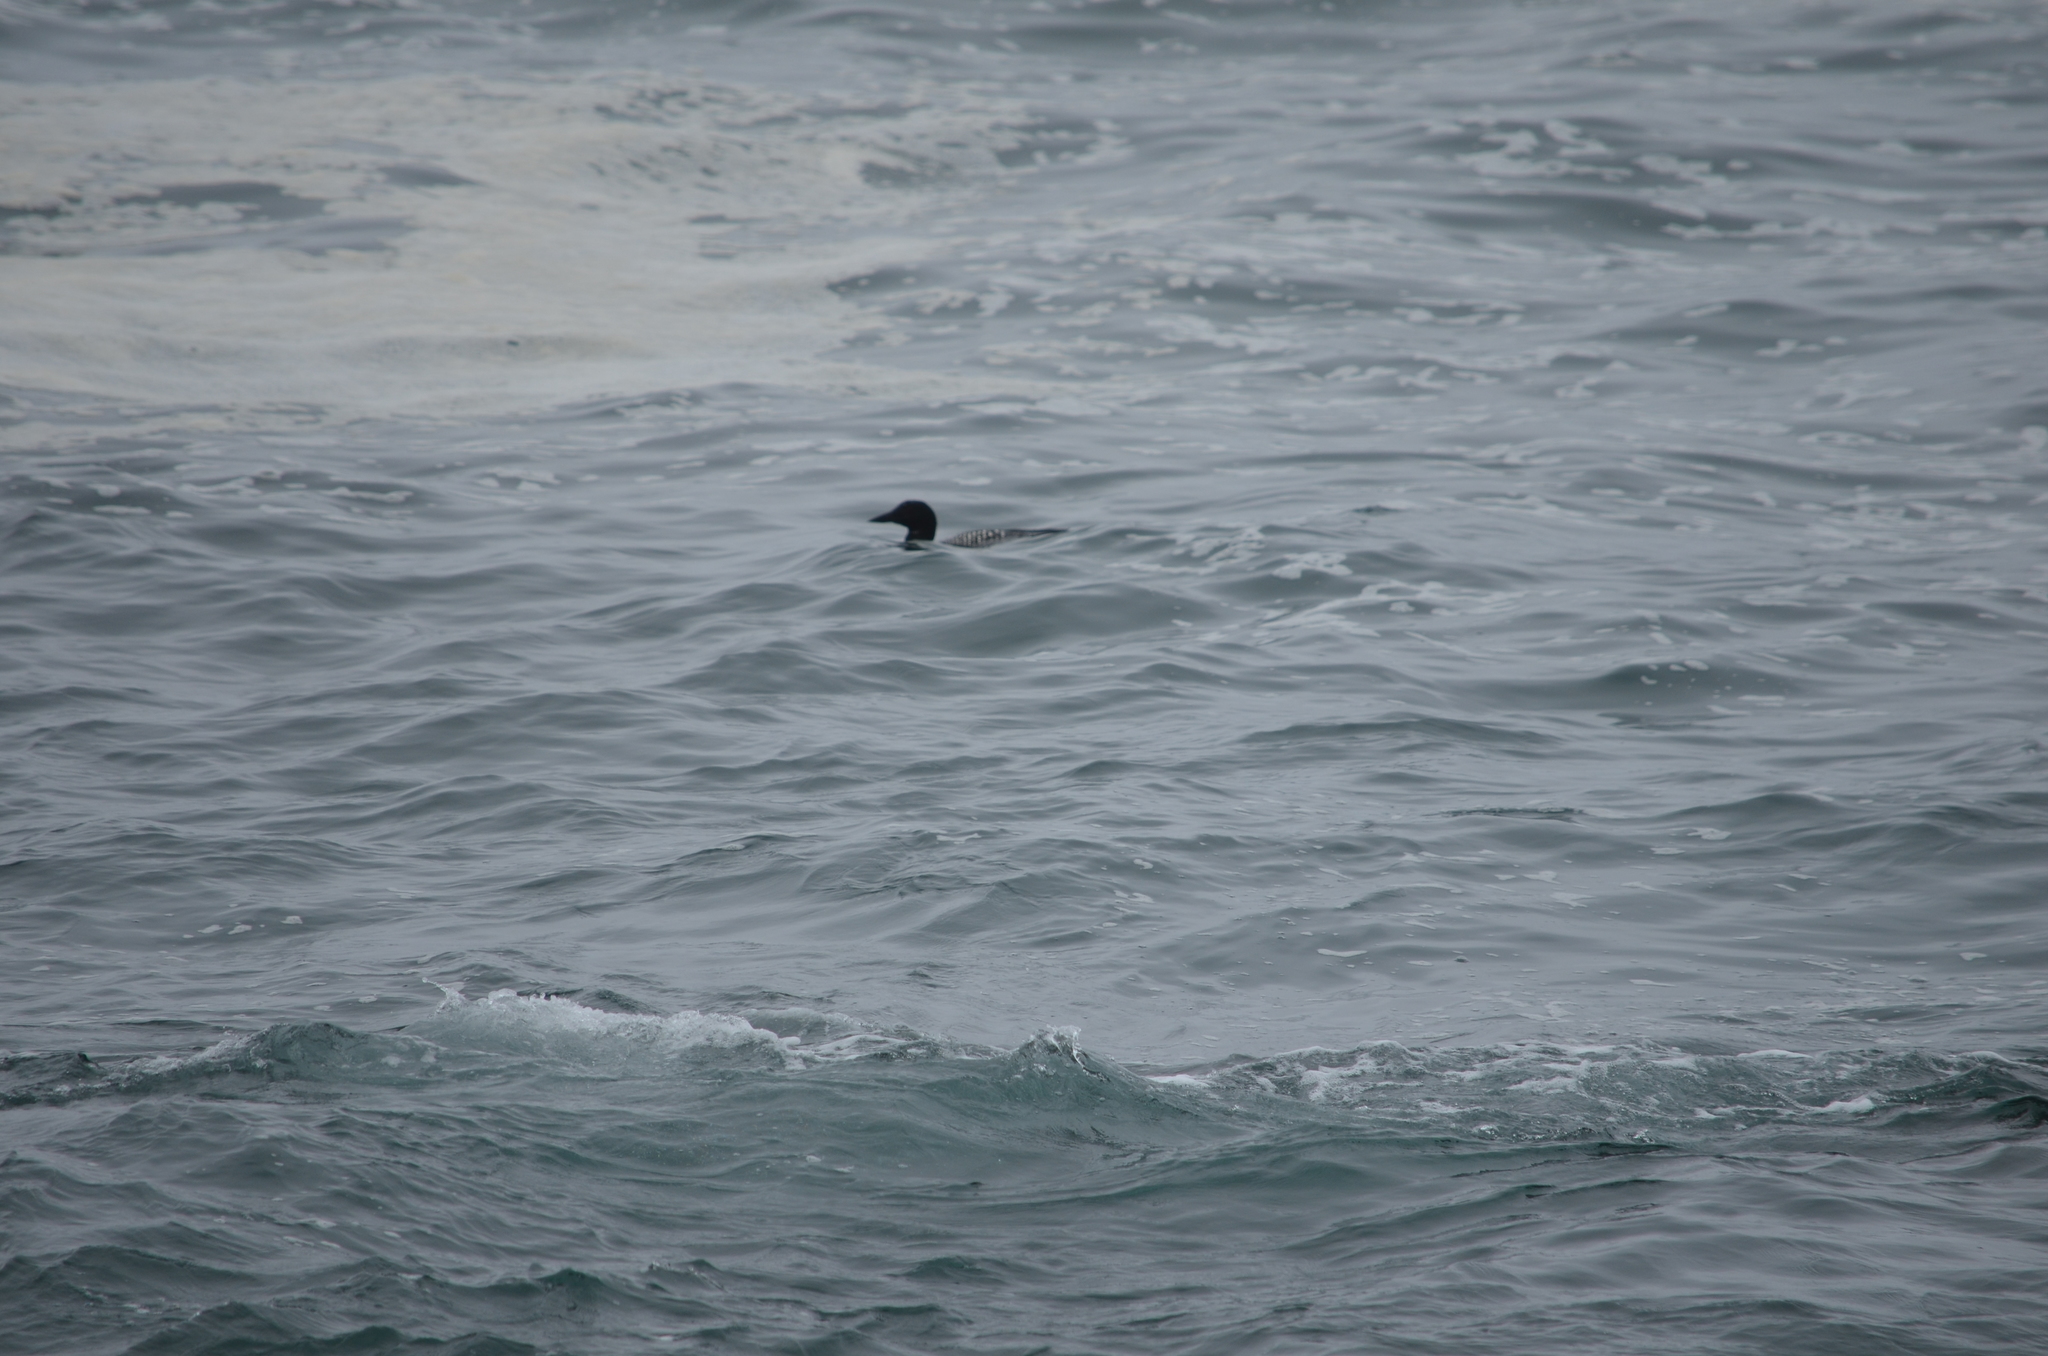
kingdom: Animalia
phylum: Chordata
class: Aves
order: Gaviiformes
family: Gaviidae
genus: Gavia
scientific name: Gavia immer
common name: Common loon
